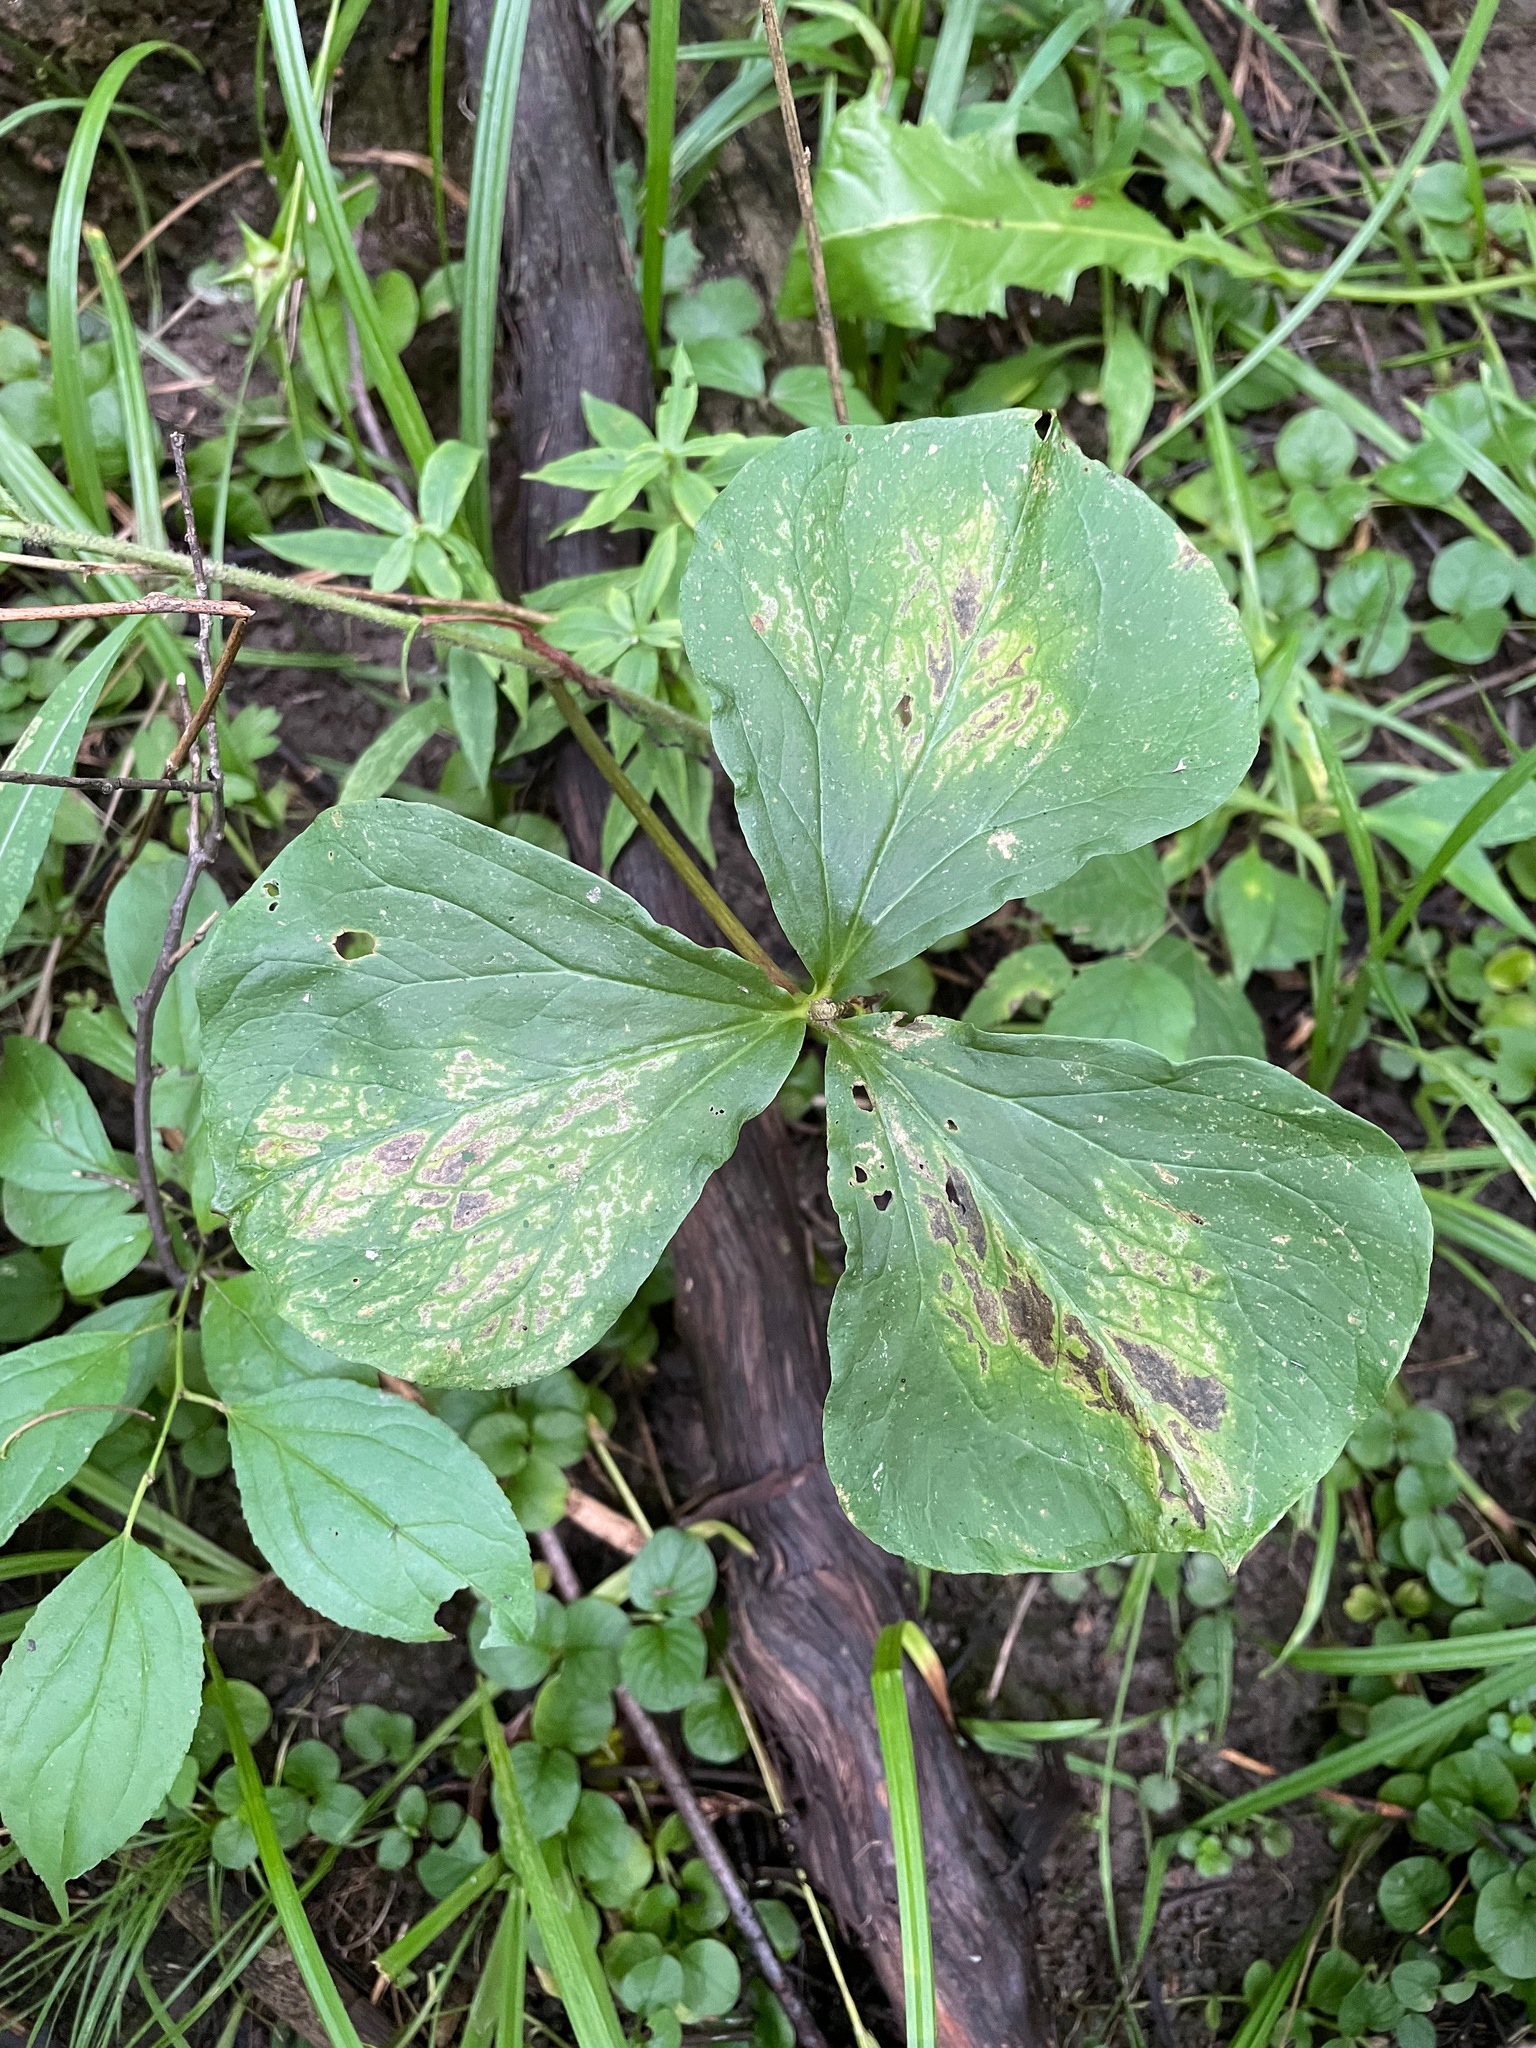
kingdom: Plantae
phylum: Tracheophyta
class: Liliopsida
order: Liliales
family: Melanthiaceae
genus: Trillium
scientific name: Trillium cernuum
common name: Nodding trillium
